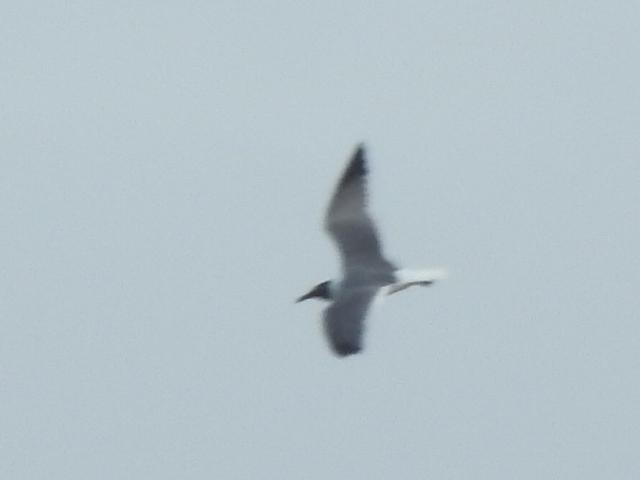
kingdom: Animalia
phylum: Chordata
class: Aves
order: Charadriiformes
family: Laridae
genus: Leucophaeus
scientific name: Leucophaeus atricilla
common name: Laughing gull
